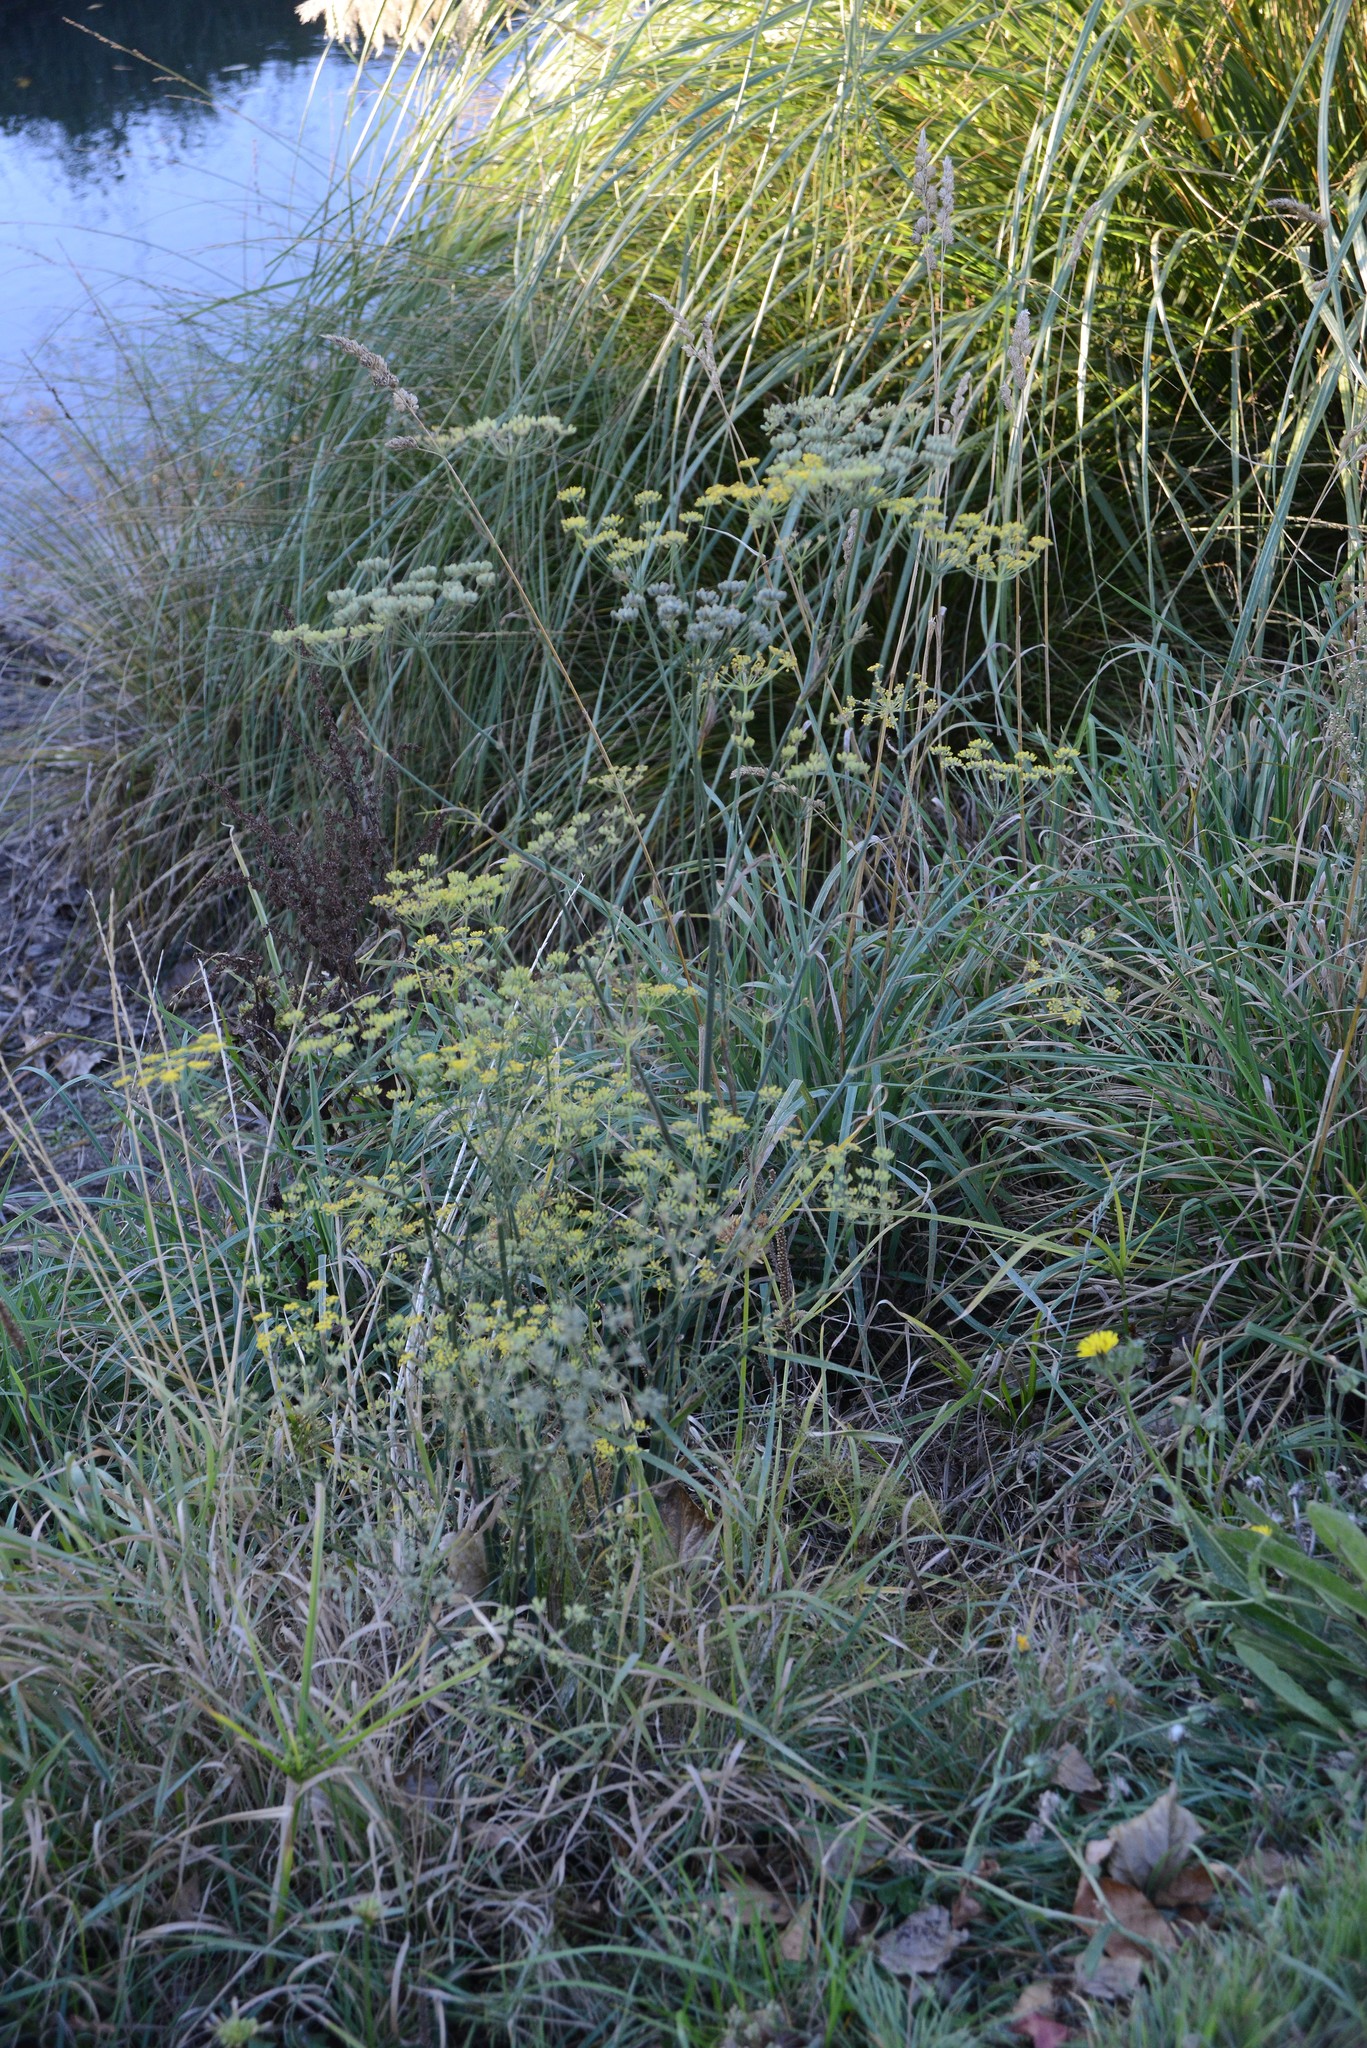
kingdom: Plantae
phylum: Tracheophyta
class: Magnoliopsida
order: Apiales
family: Apiaceae
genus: Foeniculum
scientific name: Foeniculum vulgare
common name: Fennel
